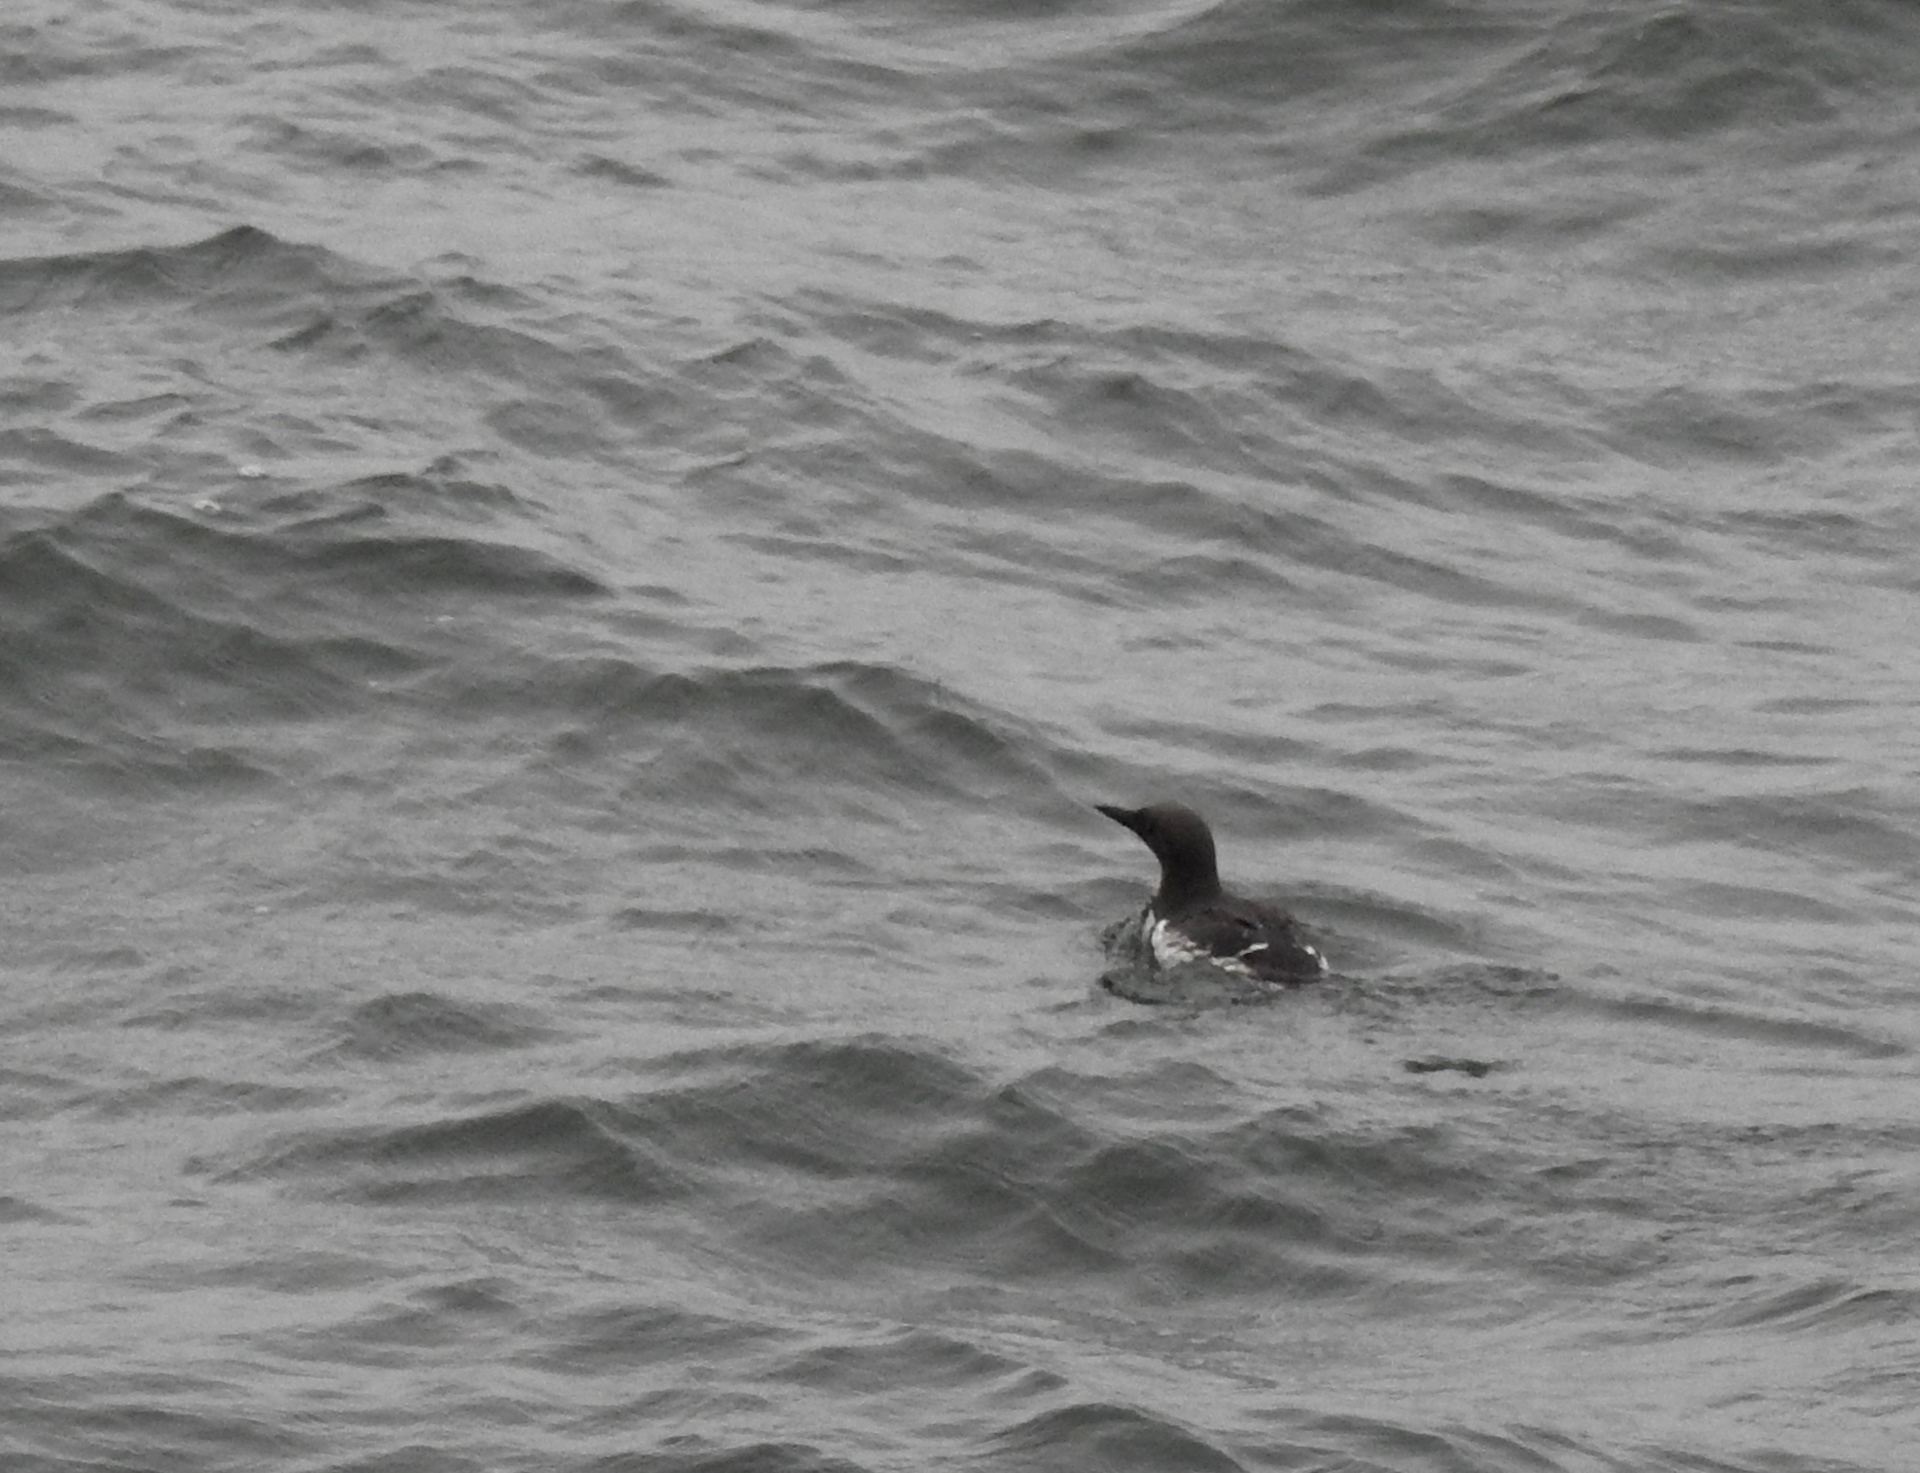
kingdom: Animalia
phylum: Chordata
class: Aves
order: Charadriiformes
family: Alcidae
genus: Uria
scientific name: Uria aalge
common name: Common murre
